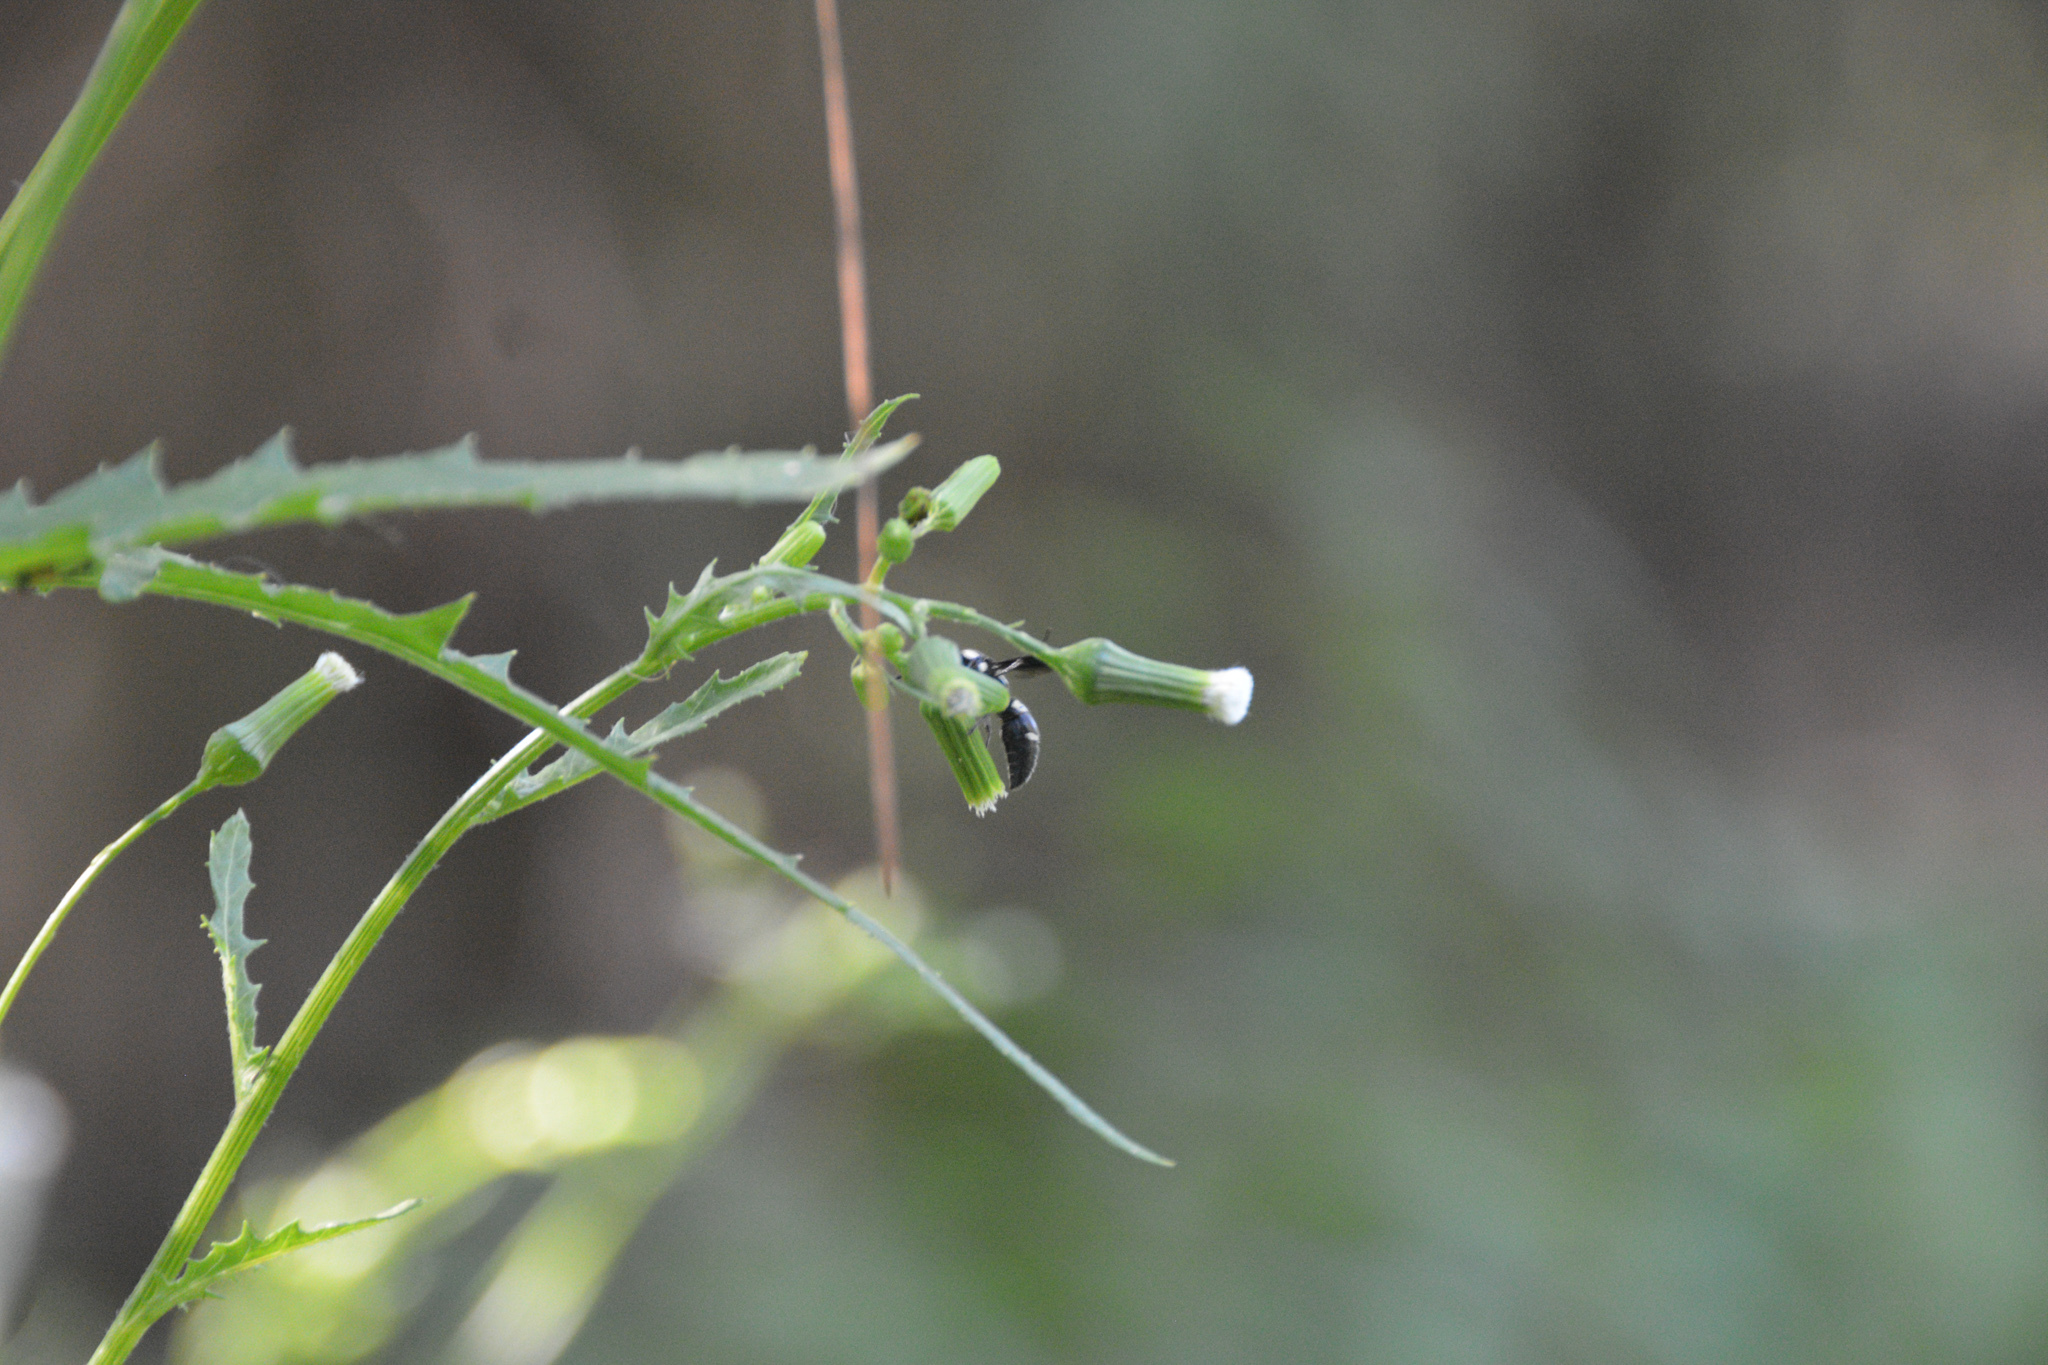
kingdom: Animalia
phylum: Arthropoda
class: Insecta
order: Hymenoptera
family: Eumenidae
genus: Pseudodynerus
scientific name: Pseudodynerus quadrisectus
